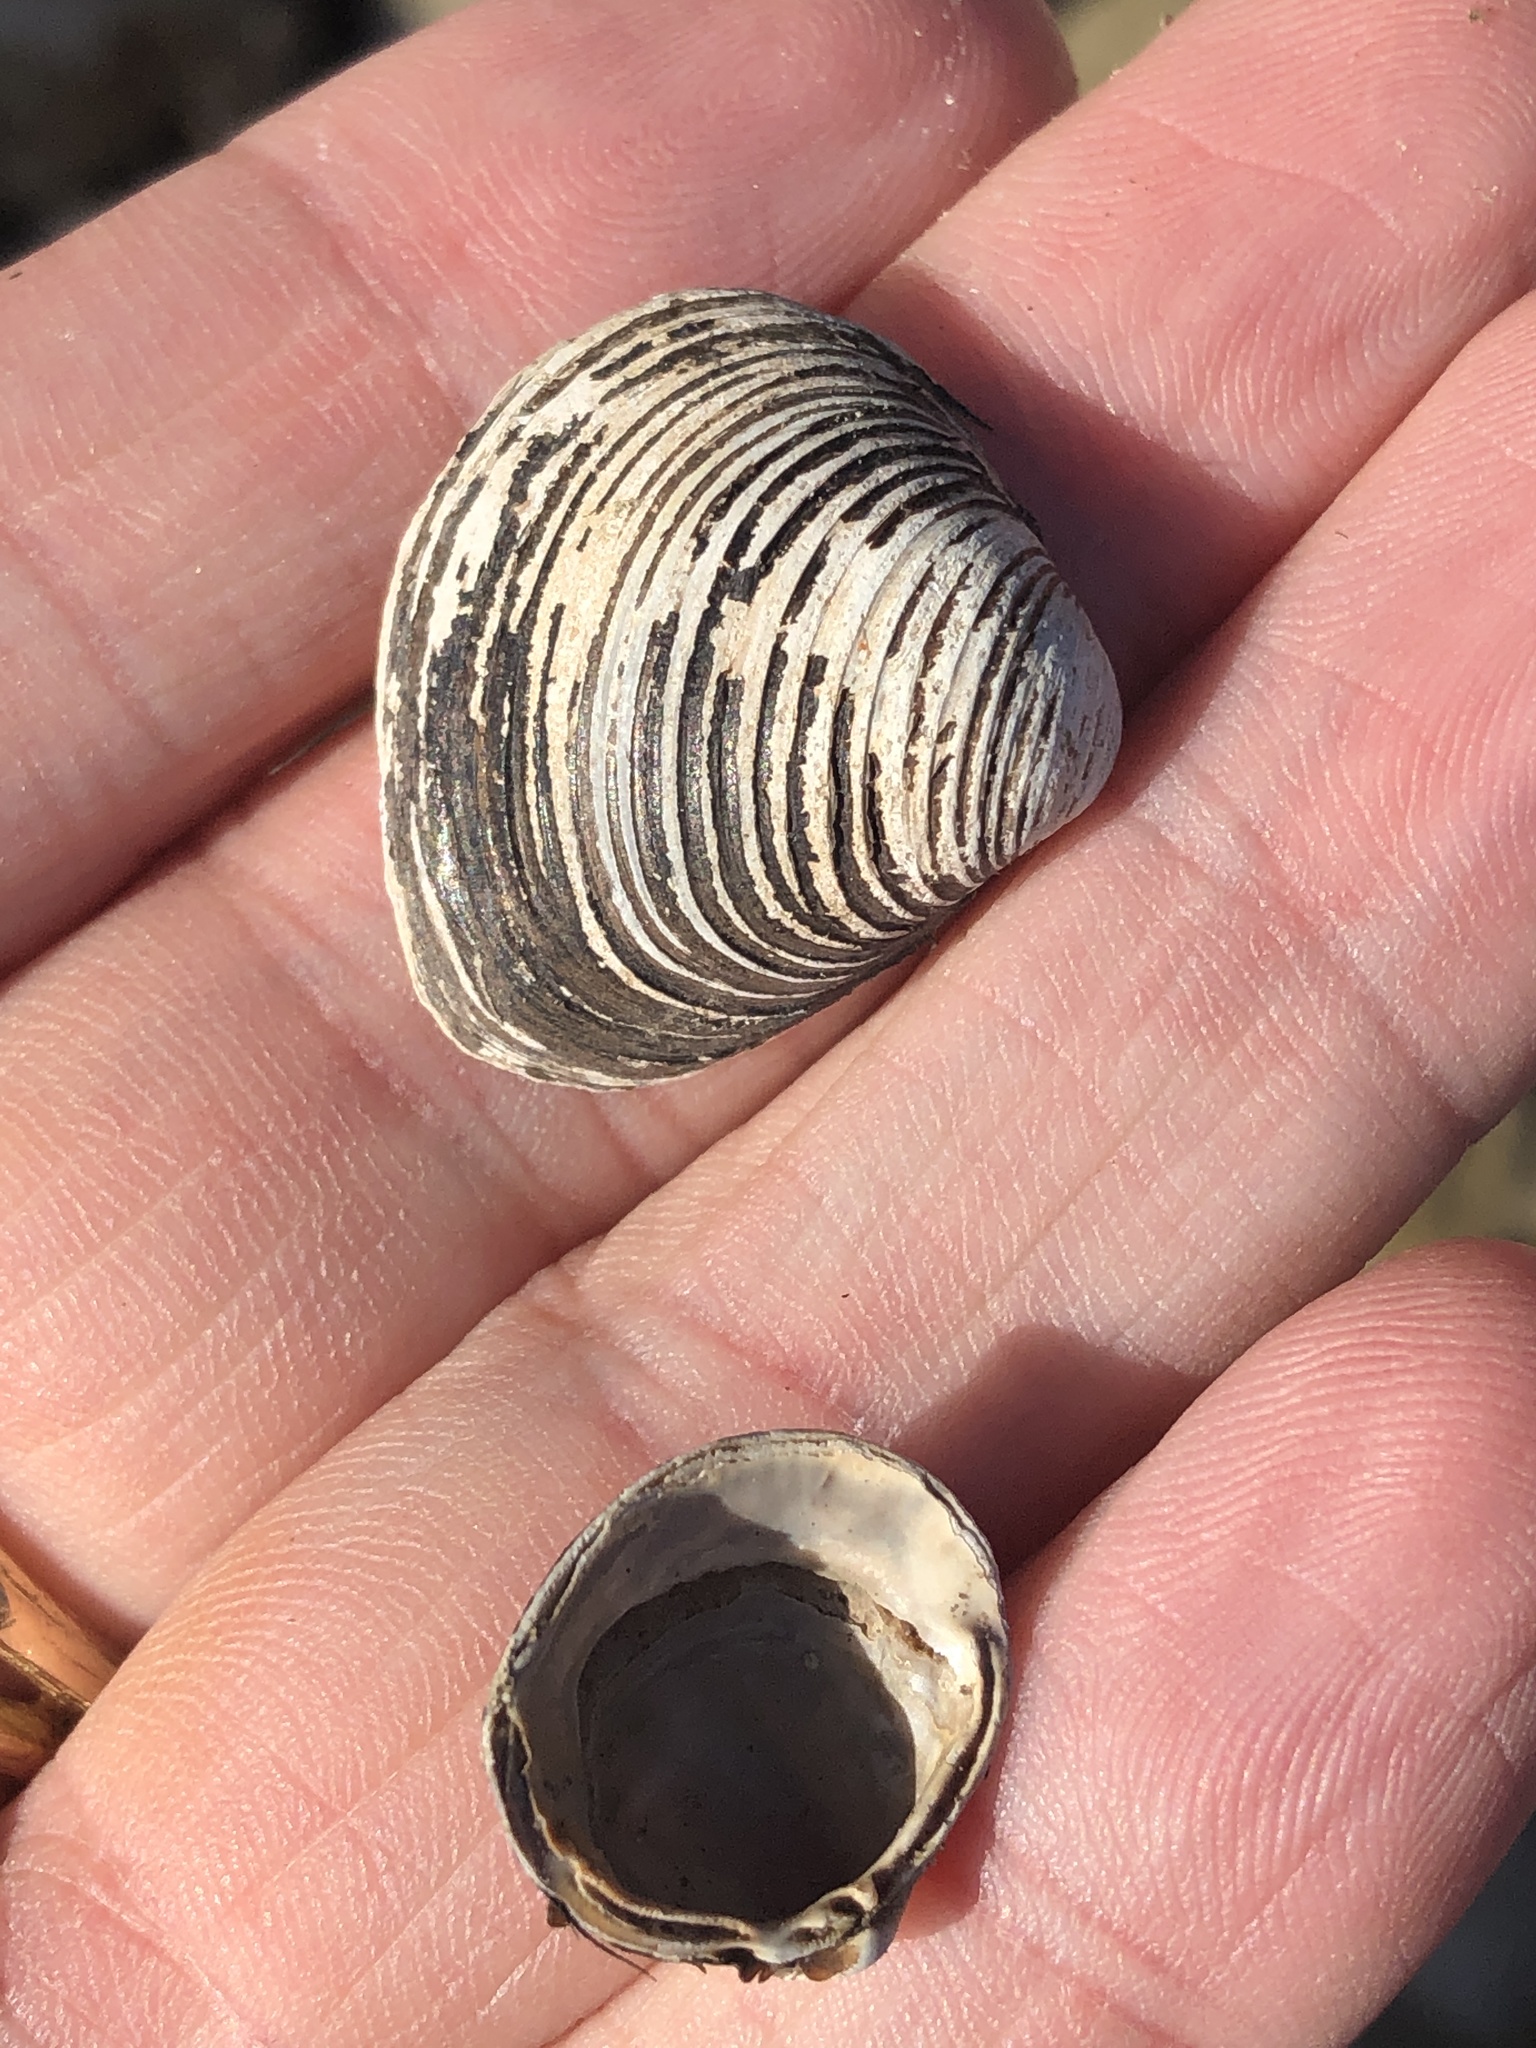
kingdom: Animalia
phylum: Mollusca
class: Bivalvia
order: Venerida
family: Cyrenidae
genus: Corbicula
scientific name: Corbicula fluminea
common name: Asian clam
